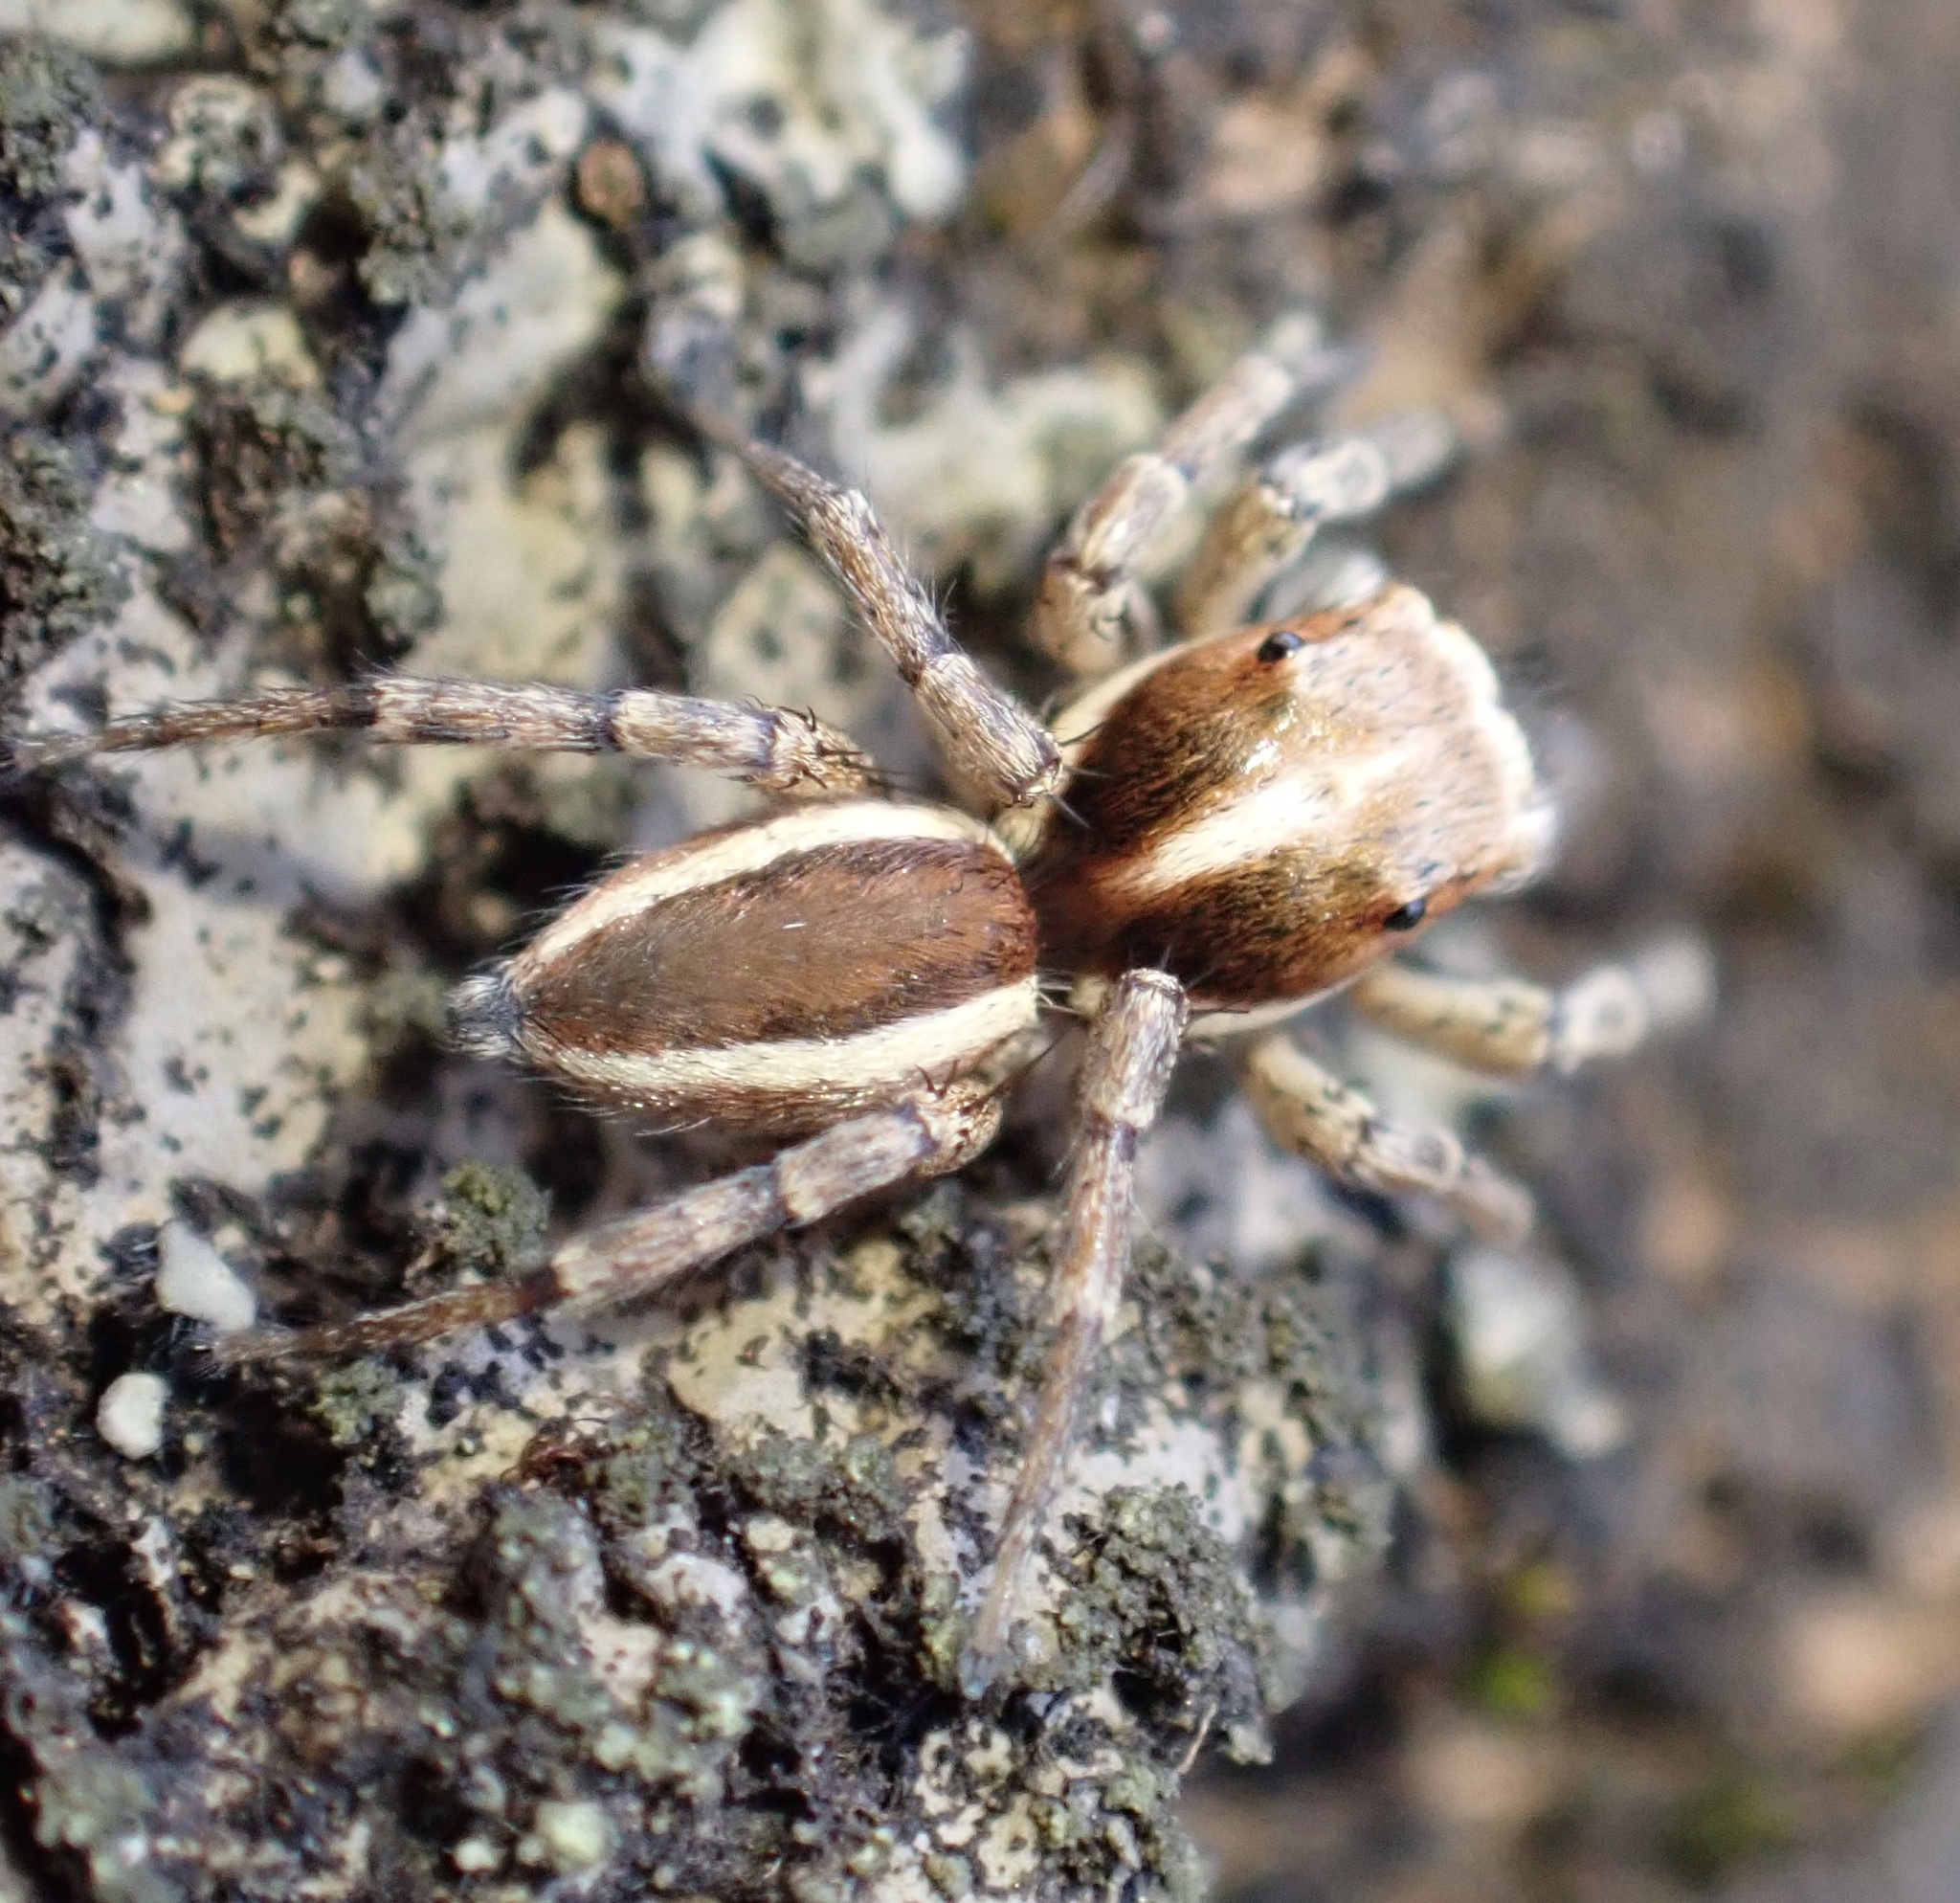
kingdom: Animalia
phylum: Arthropoda
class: Arachnida
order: Araneae
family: Salticidae
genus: Menemerus
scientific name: Menemerus bivittatus
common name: Gray wall jumper
